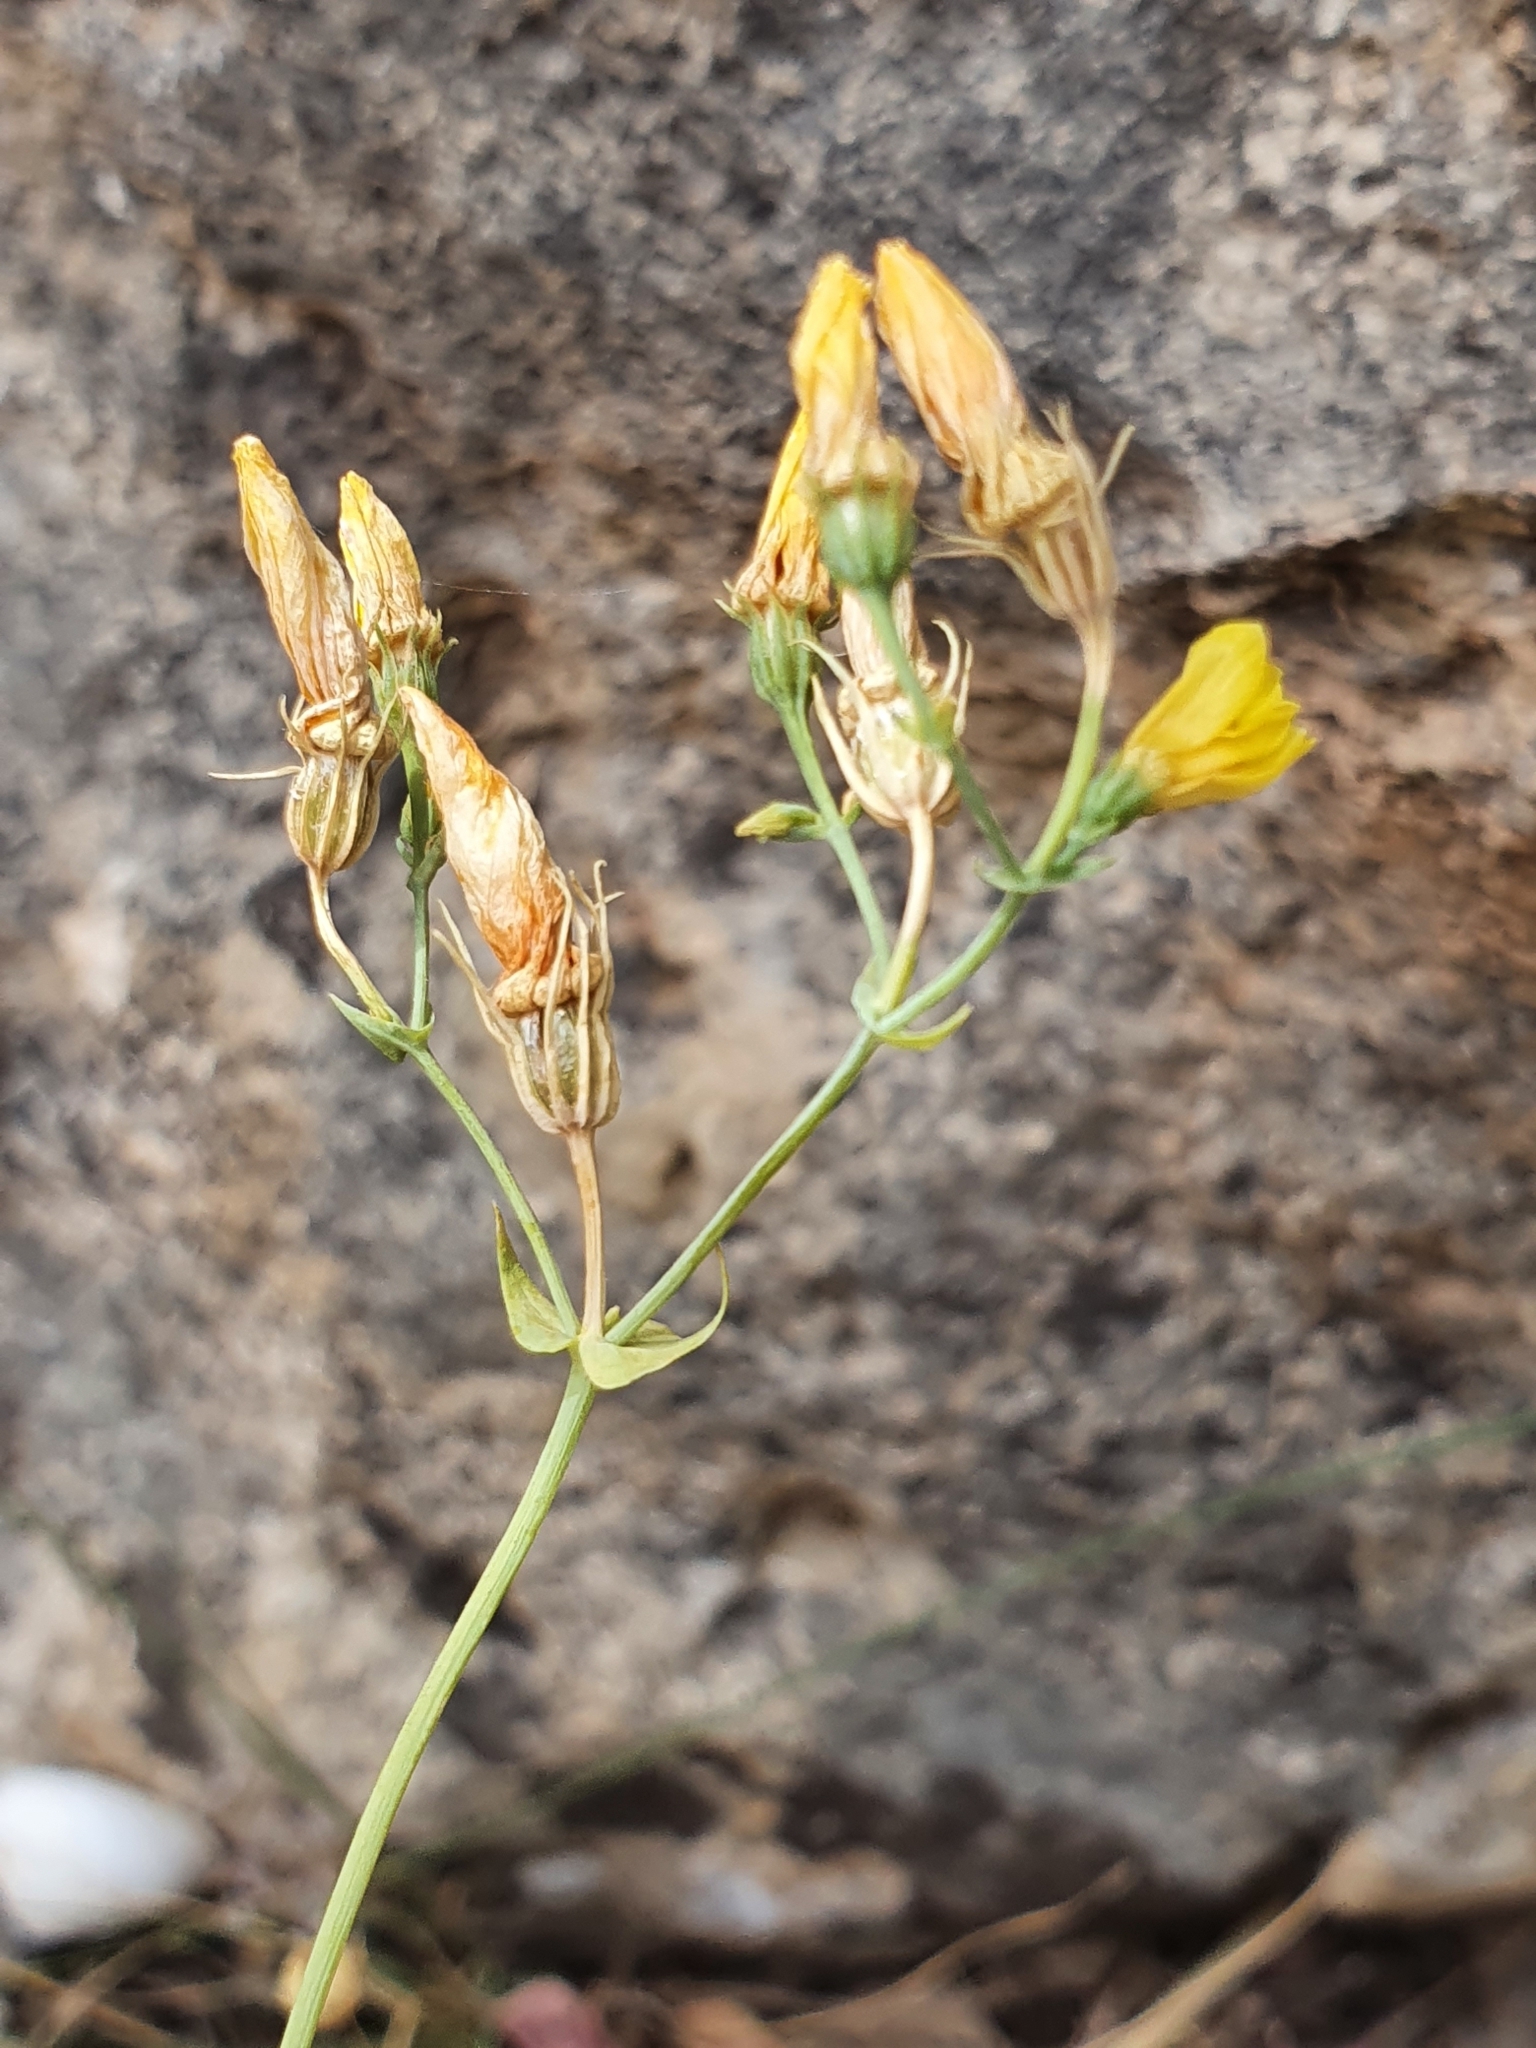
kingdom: Plantae
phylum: Tracheophyta
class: Magnoliopsida
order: Gentianales
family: Gentianaceae
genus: Blackstonia
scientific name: Blackstonia grandiflora
